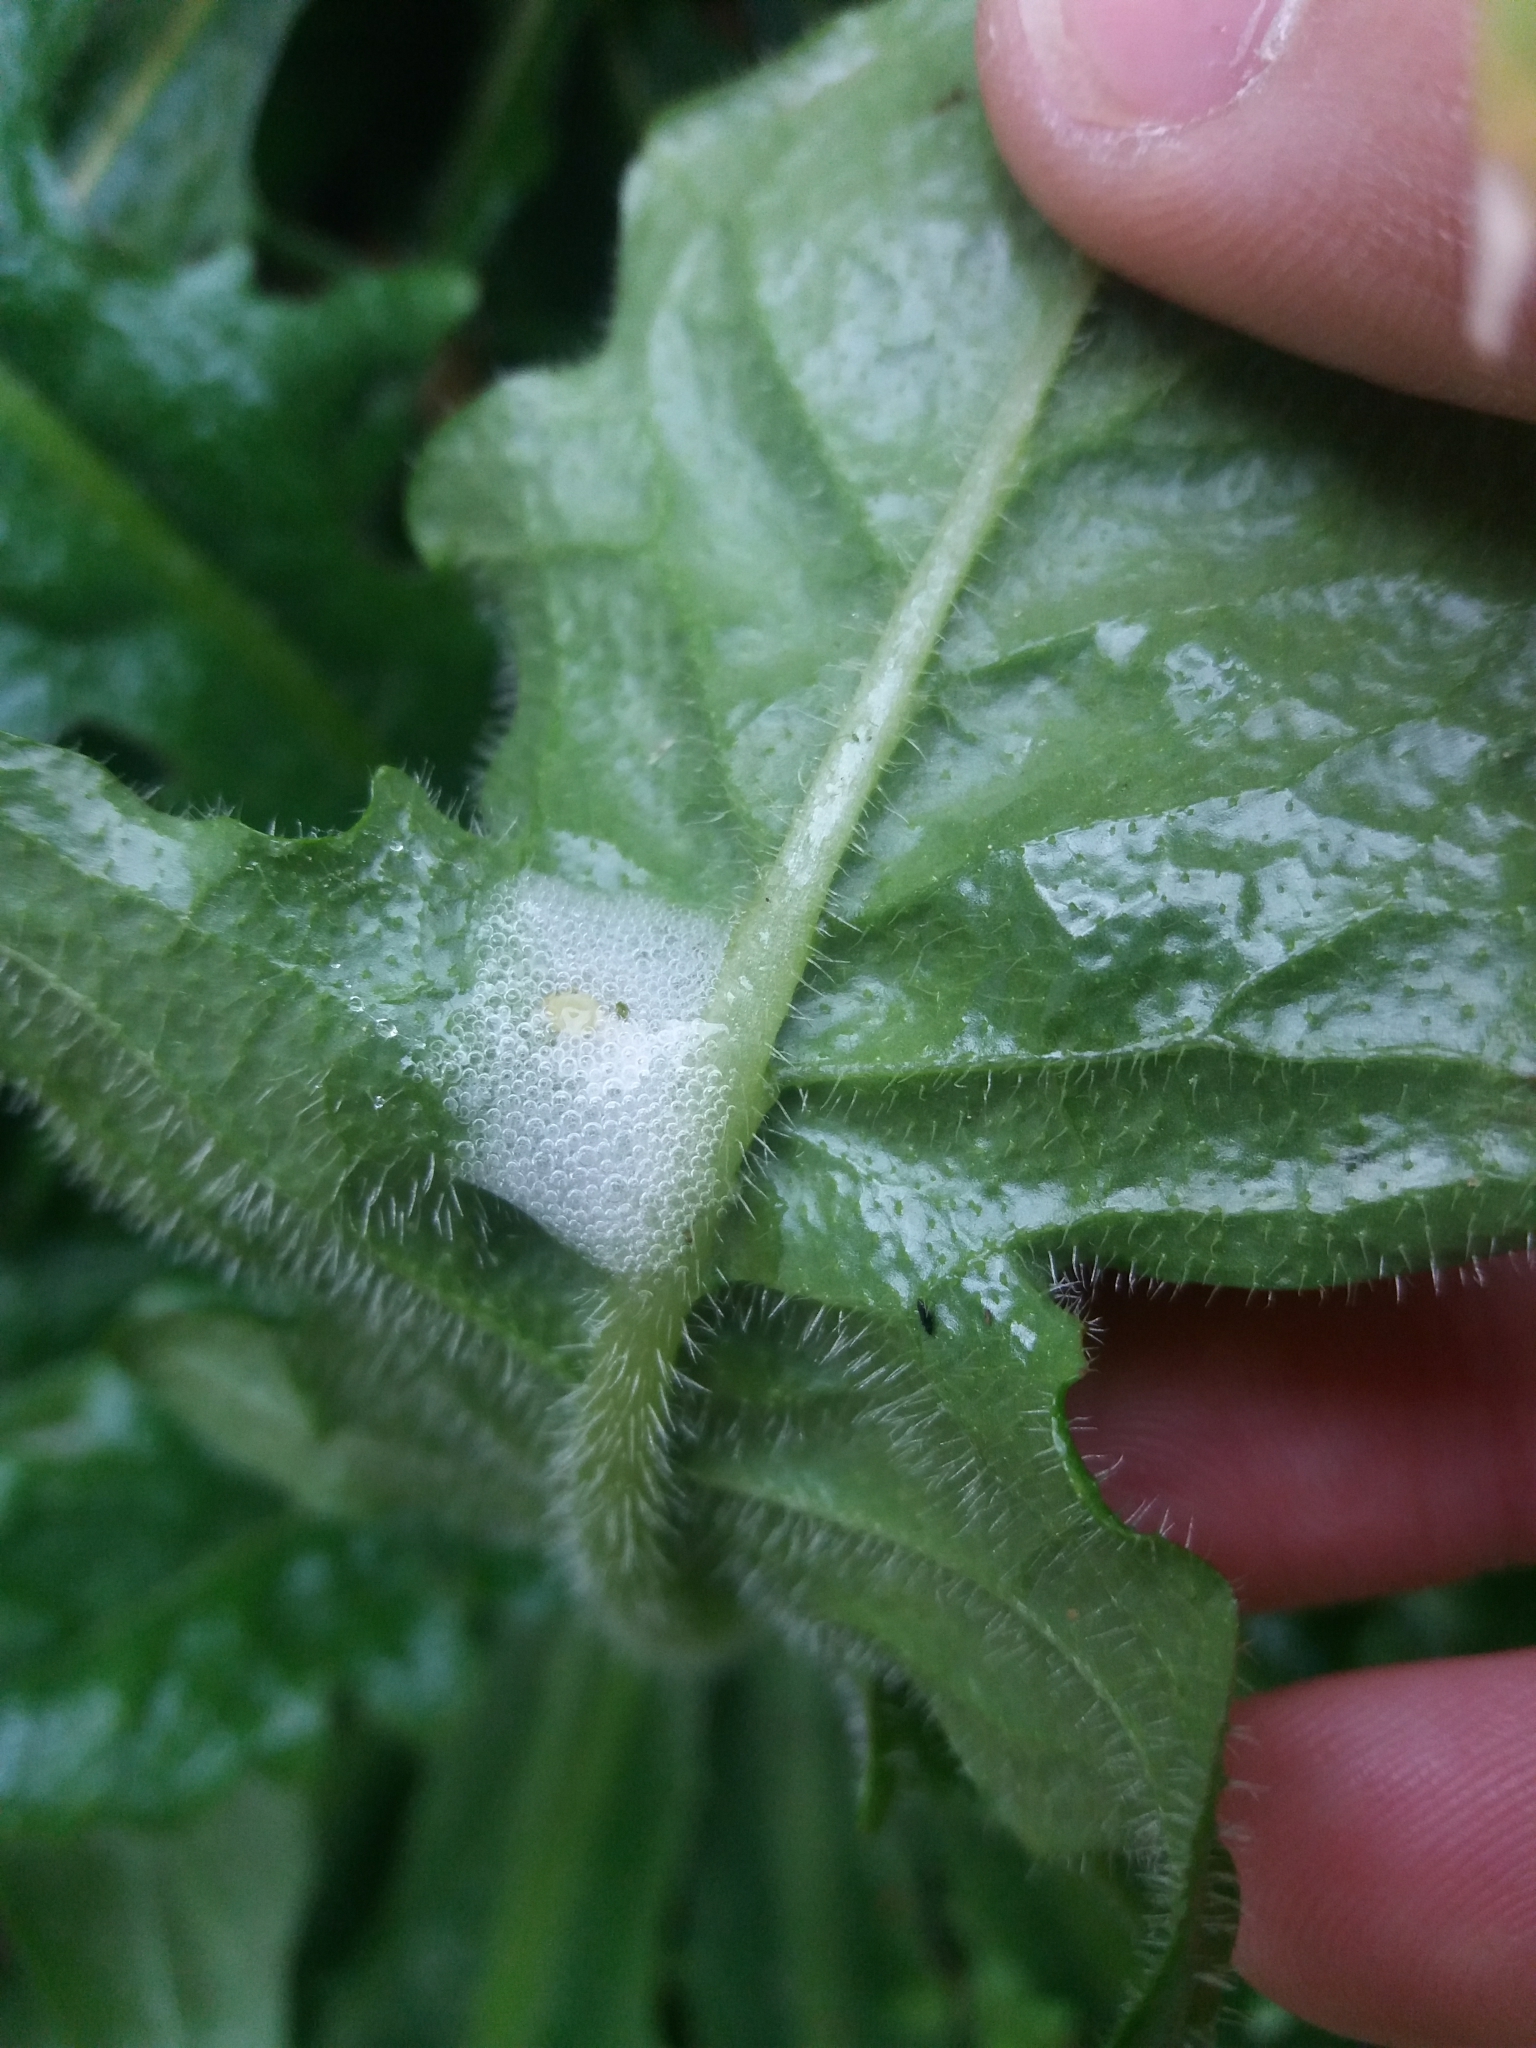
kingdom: Plantae
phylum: Tracheophyta
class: Magnoliopsida
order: Asterales
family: Asteraceae
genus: Hypochaeris
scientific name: Hypochaeris radicata
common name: Flatweed
